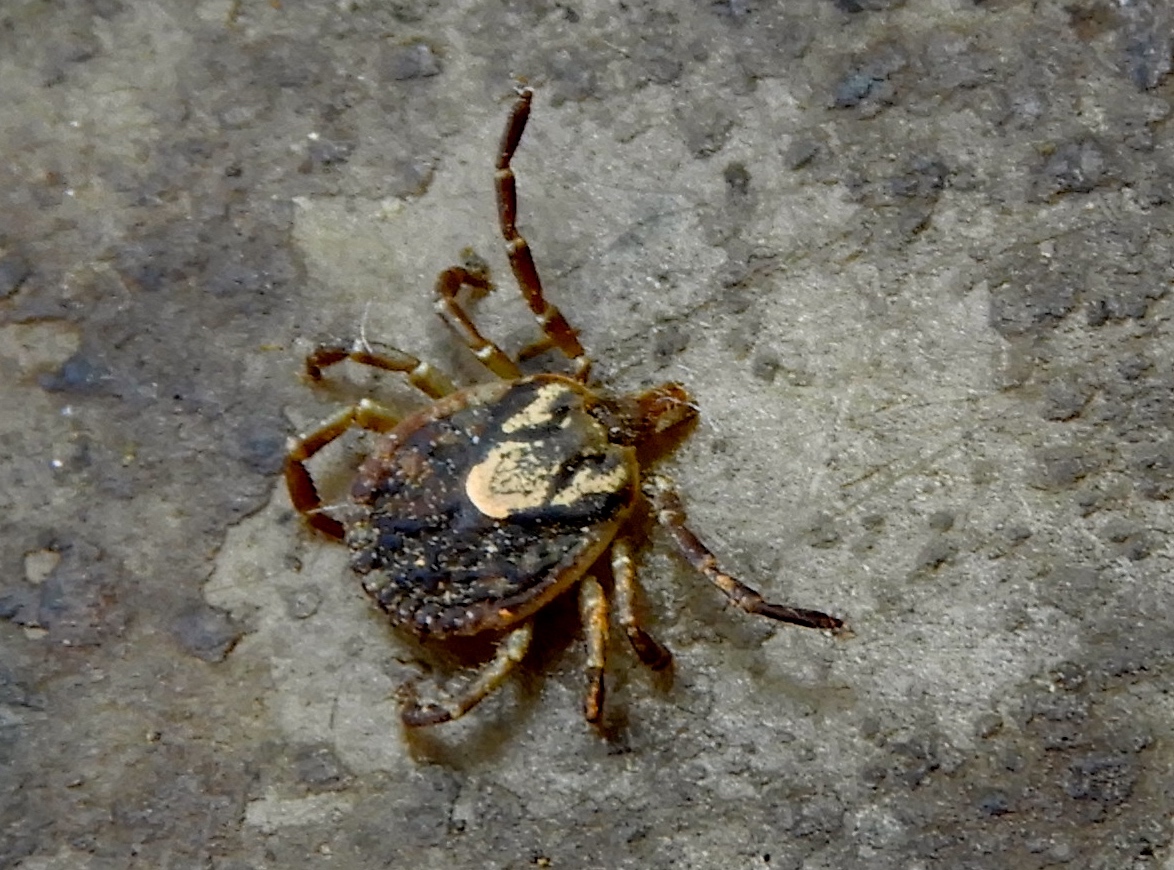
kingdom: Animalia
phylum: Arthropoda
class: Arachnida
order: Ixodida
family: Ixodidae
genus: Amblyomma
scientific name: Amblyomma
